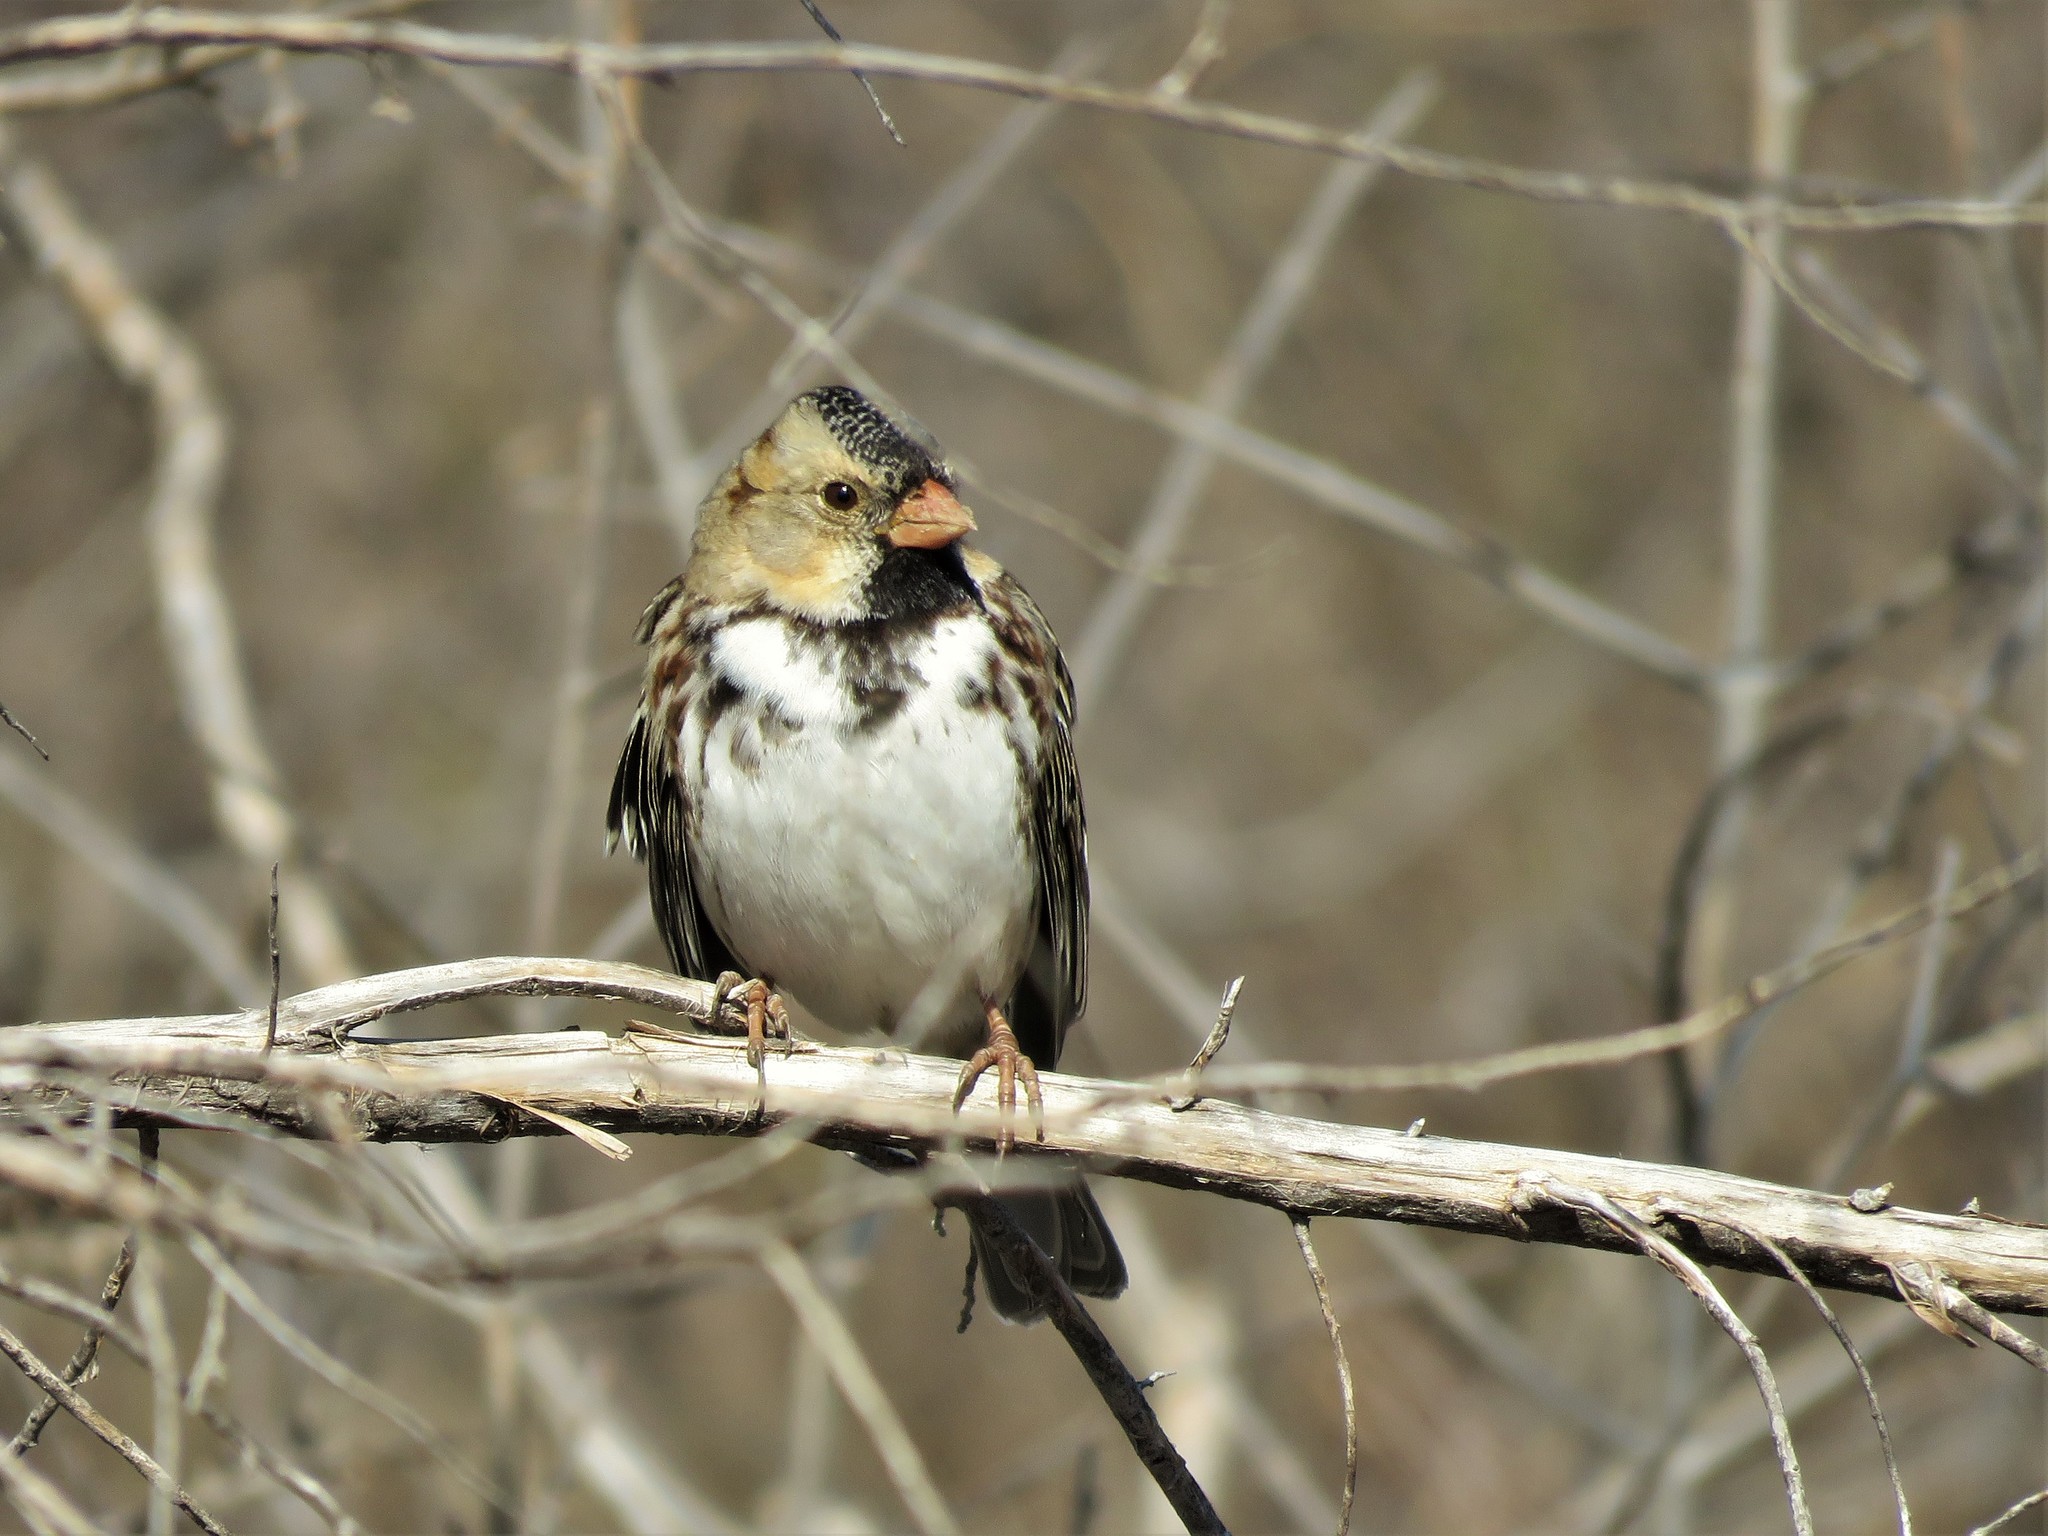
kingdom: Animalia
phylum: Chordata
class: Aves
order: Passeriformes
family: Passerellidae
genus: Zonotrichia
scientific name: Zonotrichia querula
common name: Harris's sparrow
